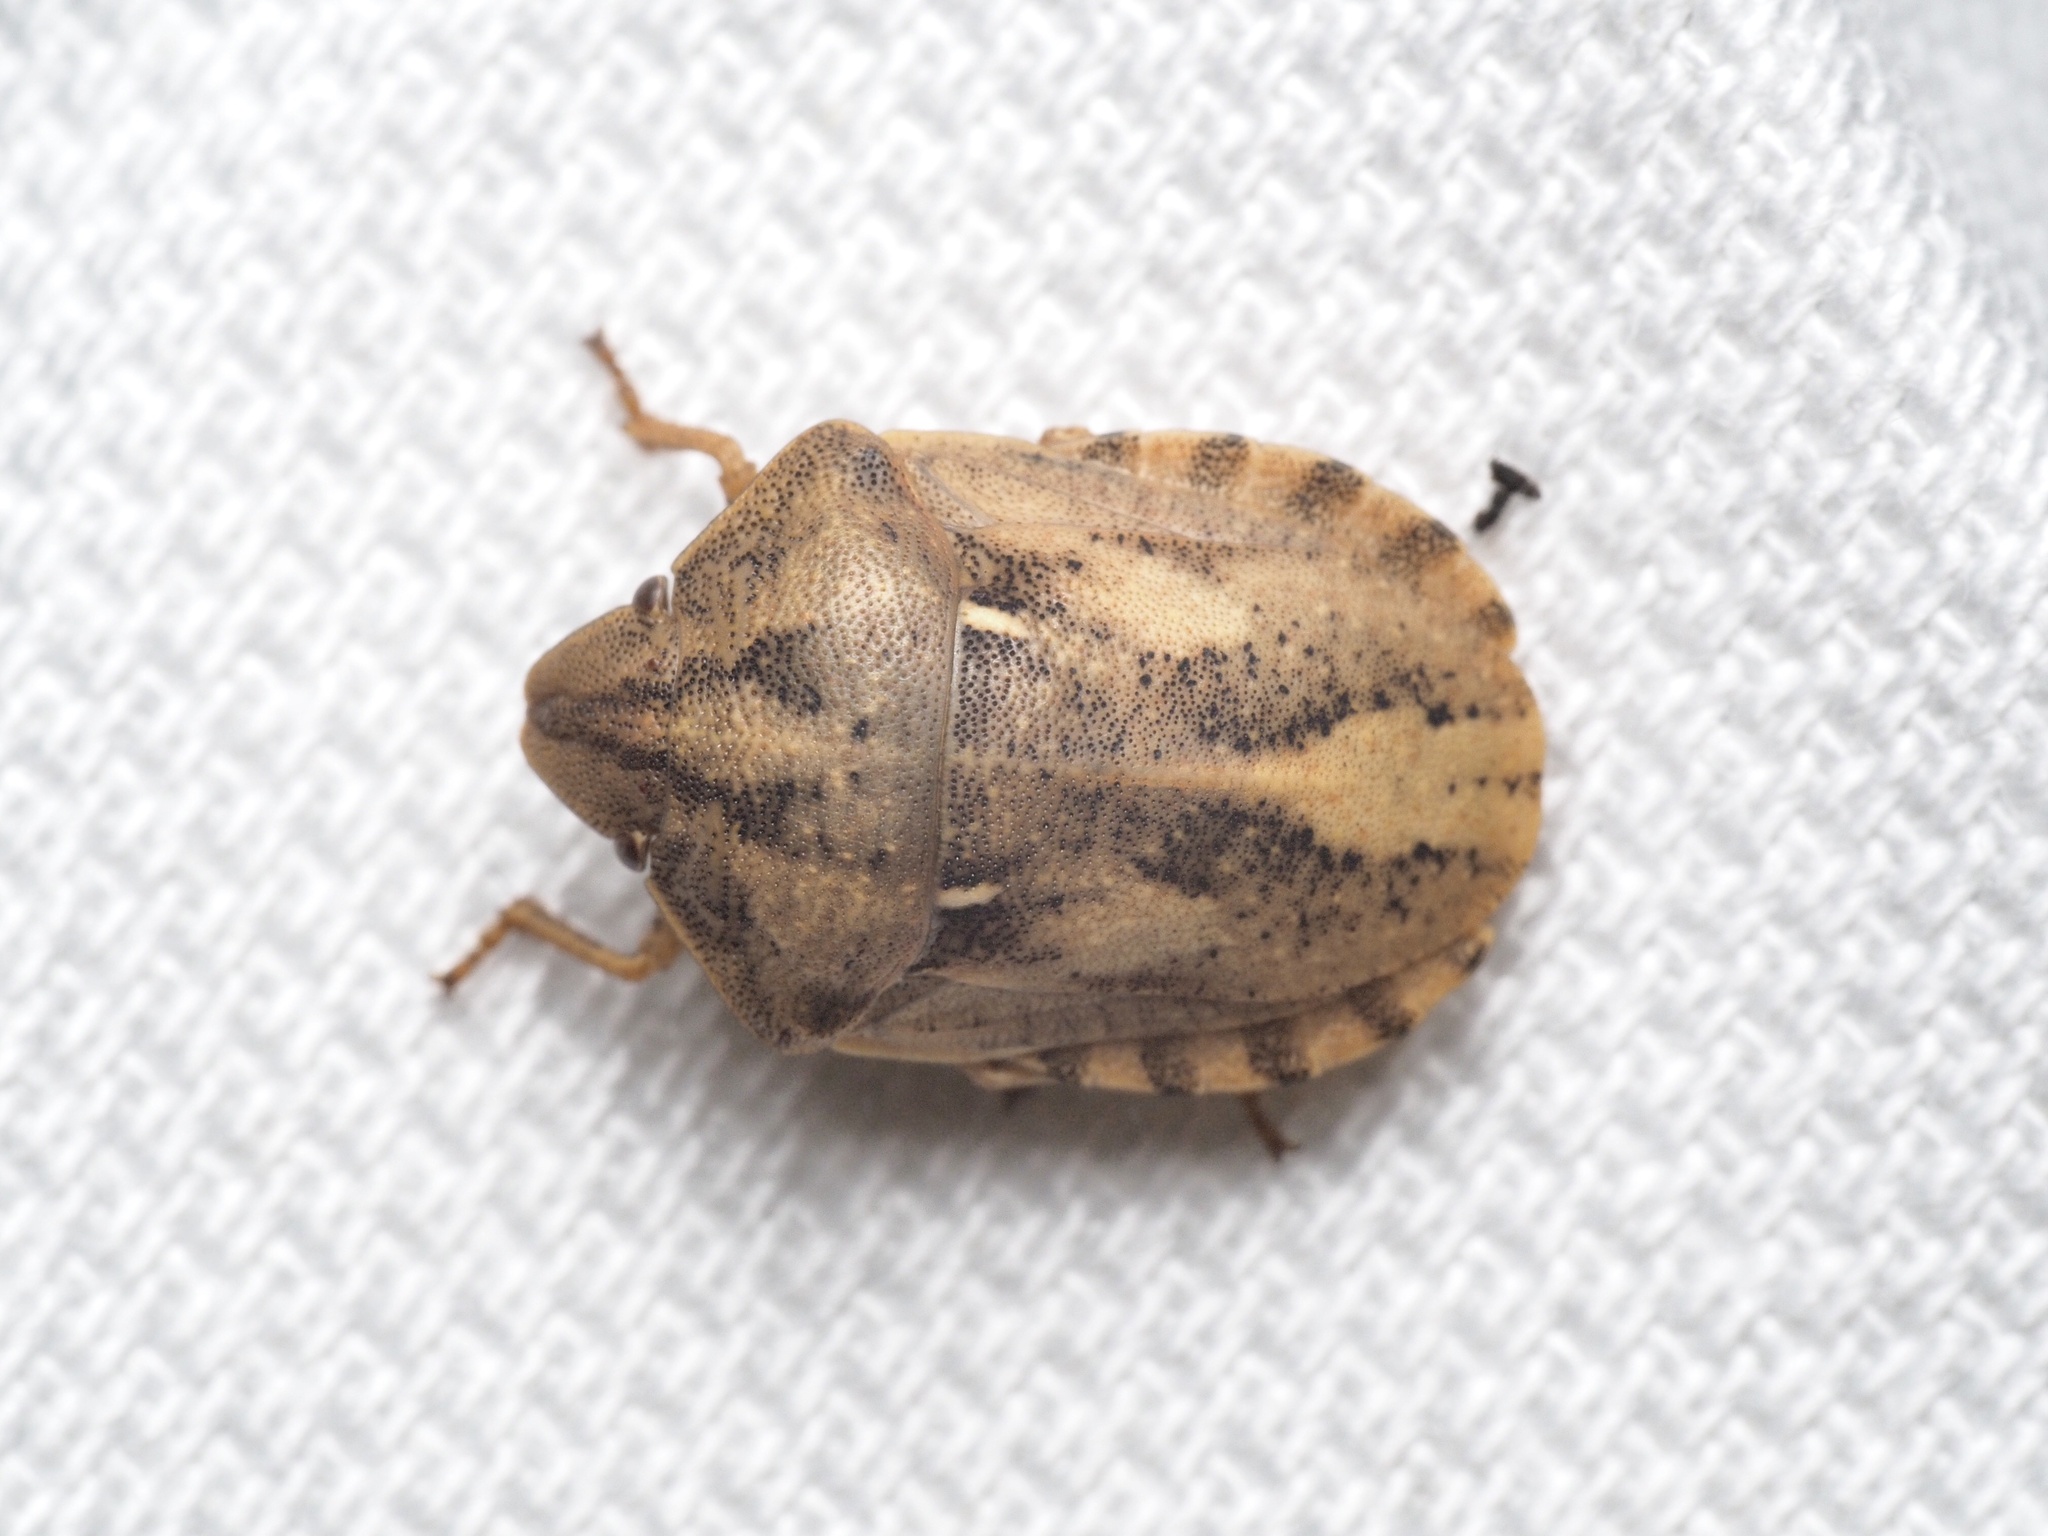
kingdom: Animalia
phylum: Arthropoda
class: Insecta
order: Hemiptera
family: Scutelleridae
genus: Eurygaster
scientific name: Eurygaster testudinaria
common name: Tortoise bug
